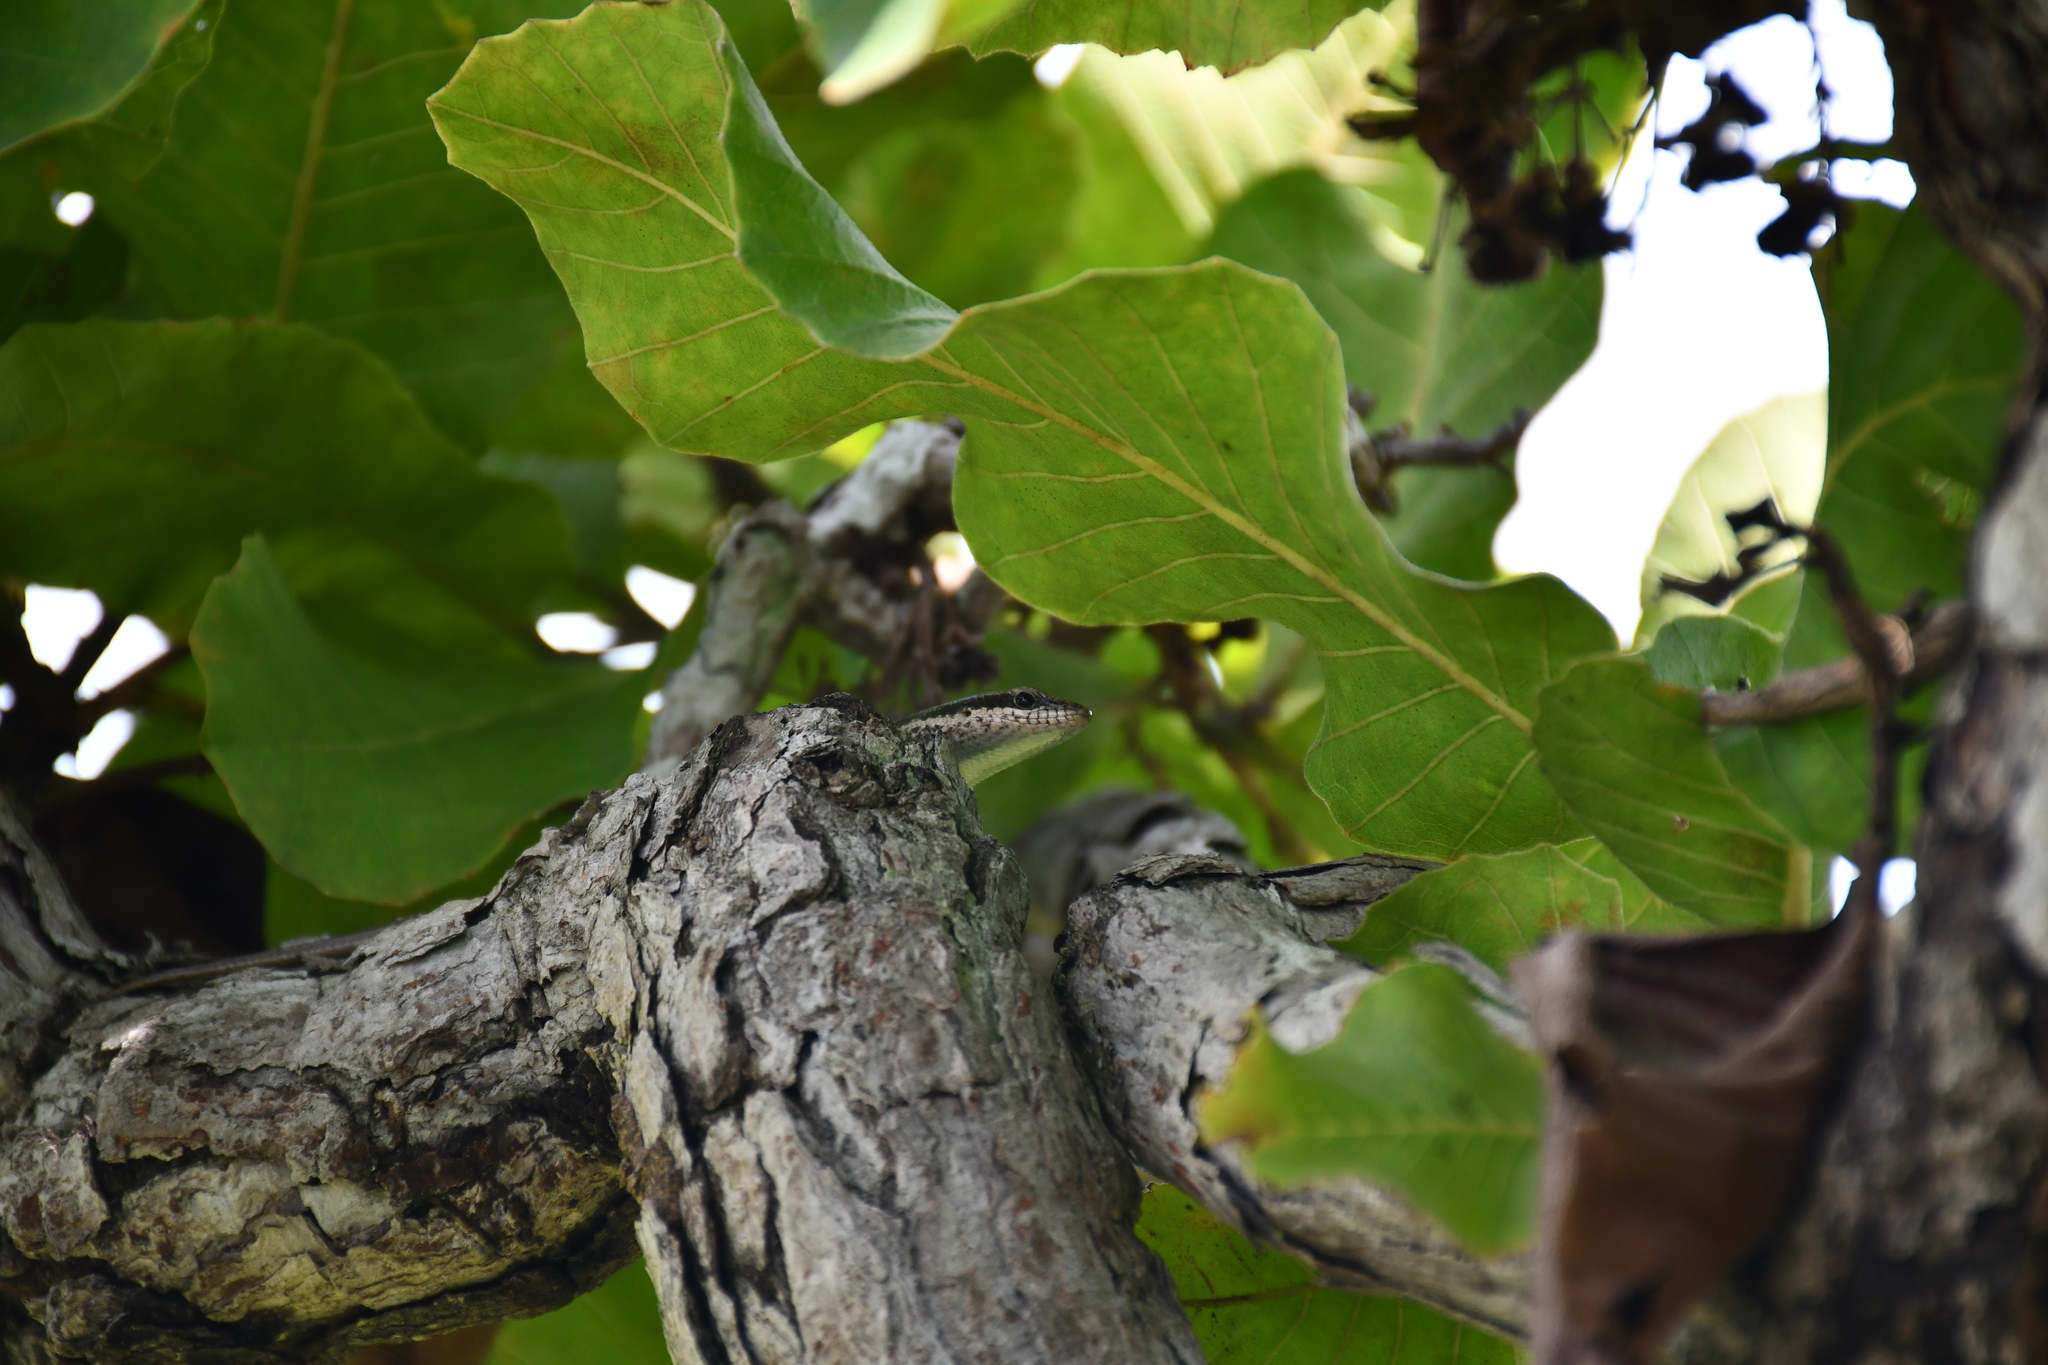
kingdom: Animalia
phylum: Chordata
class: Squamata
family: Scincidae
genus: Notomabuya
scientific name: Notomabuya frenata
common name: Cope's mabuya
